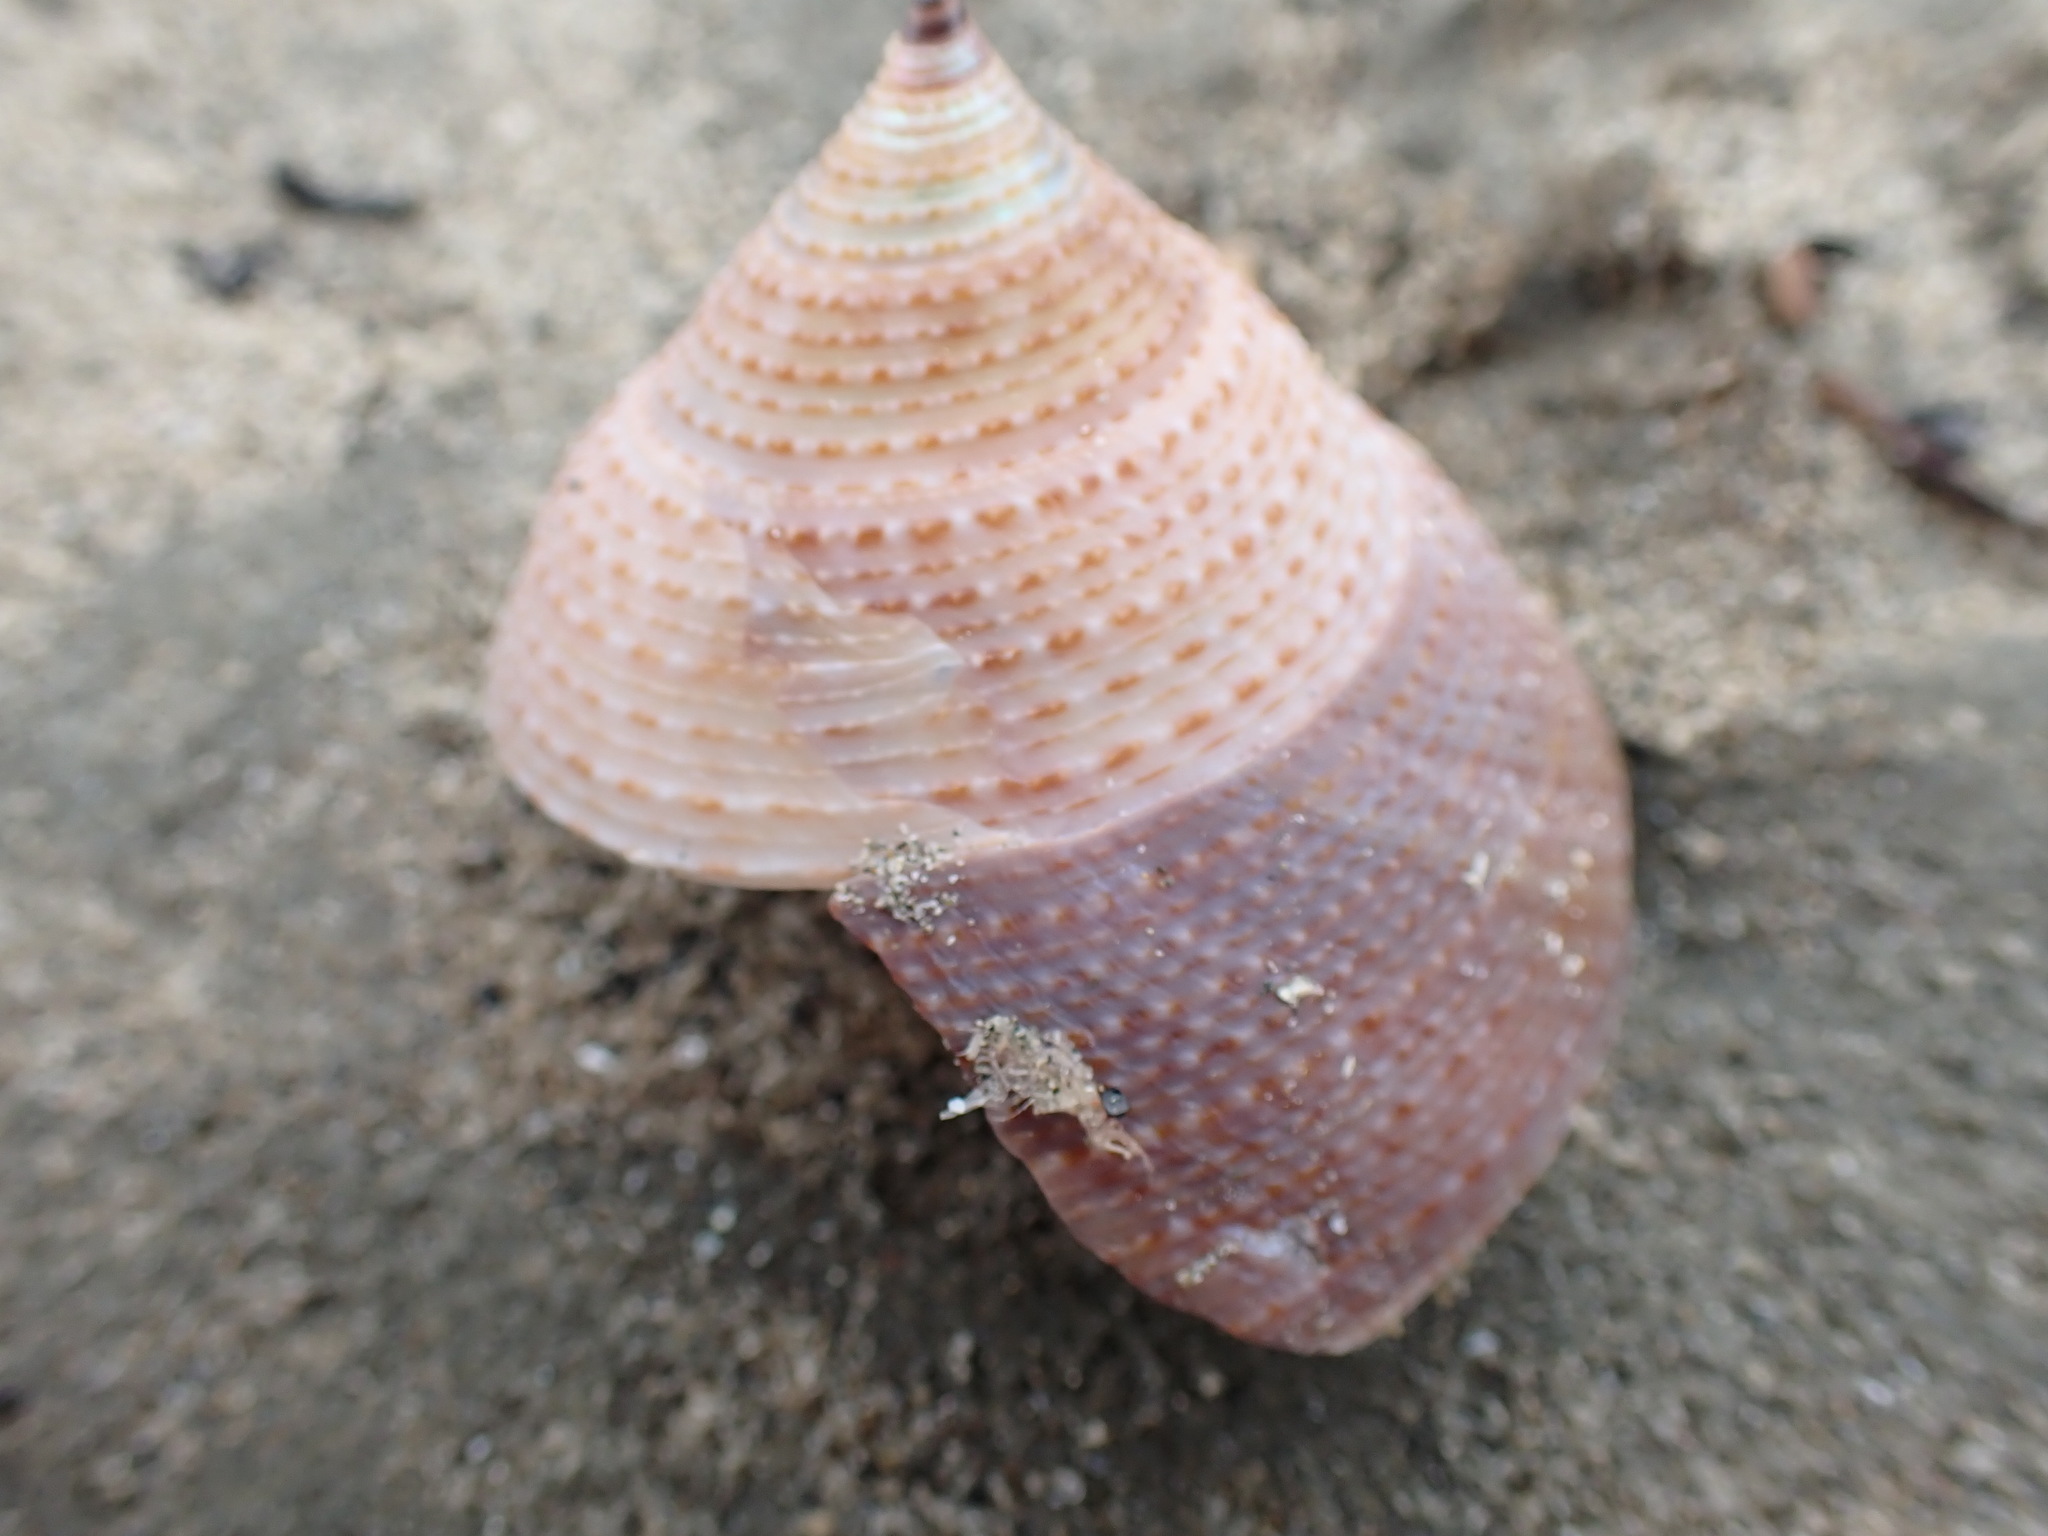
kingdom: Animalia
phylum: Mollusca
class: Gastropoda
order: Trochida
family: Calliostomatidae
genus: Maurea
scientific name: Maurea selecta
